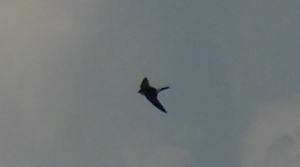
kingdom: Animalia
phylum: Chordata
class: Aves
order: Passeriformes
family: Hirundinidae
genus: Delichon
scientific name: Delichon urbicum
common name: Common house martin
